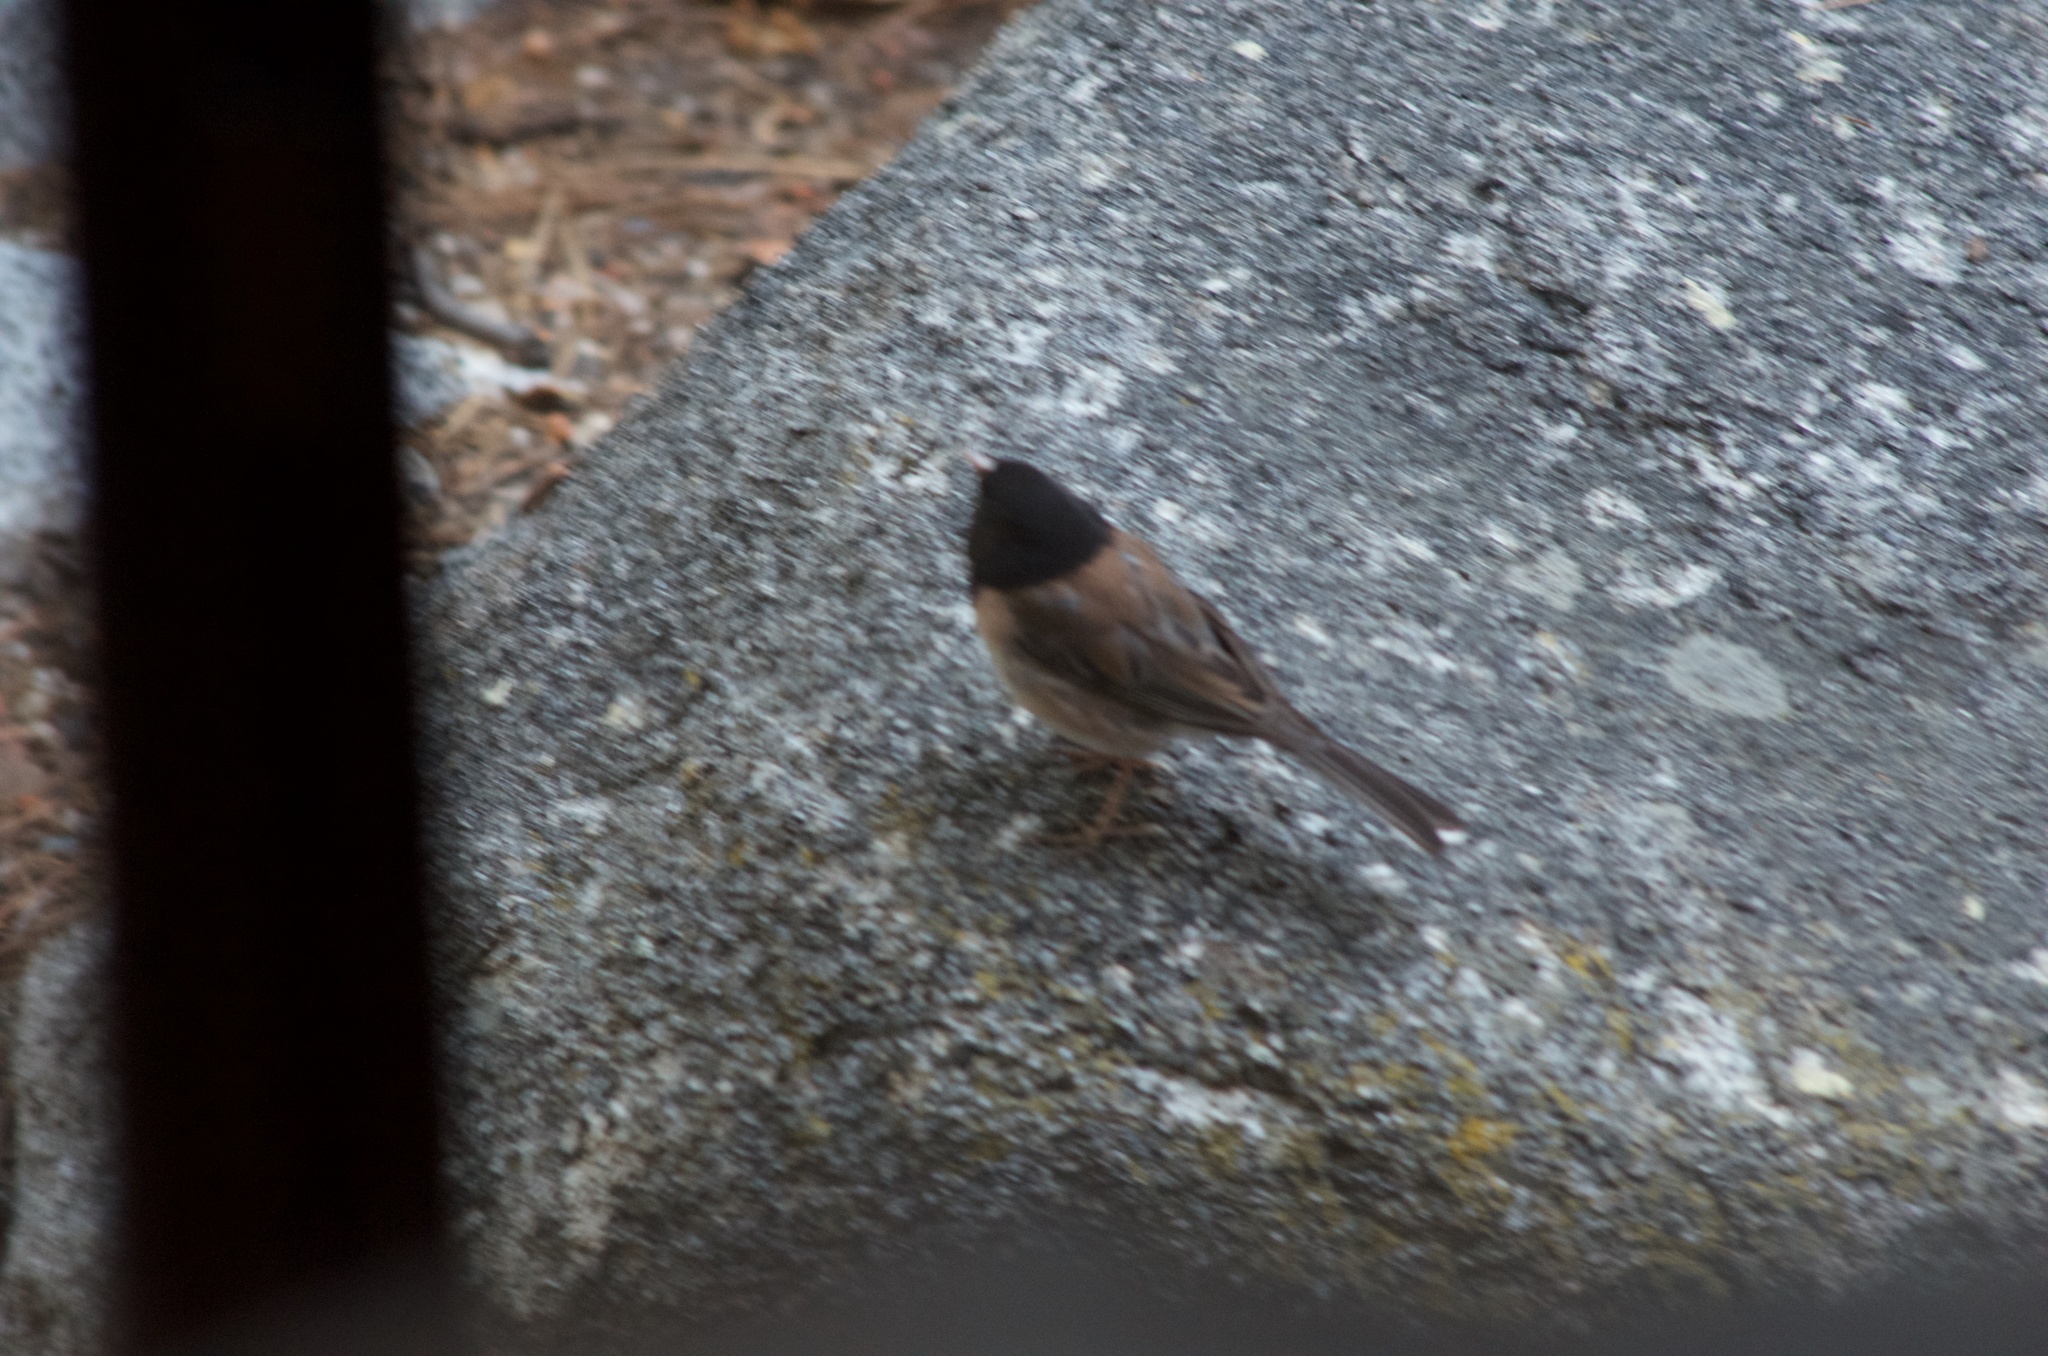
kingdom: Animalia
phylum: Chordata
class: Aves
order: Passeriformes
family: Passerellidae
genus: Junco
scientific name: Junco hyemalis
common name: Dark-eyed junco
